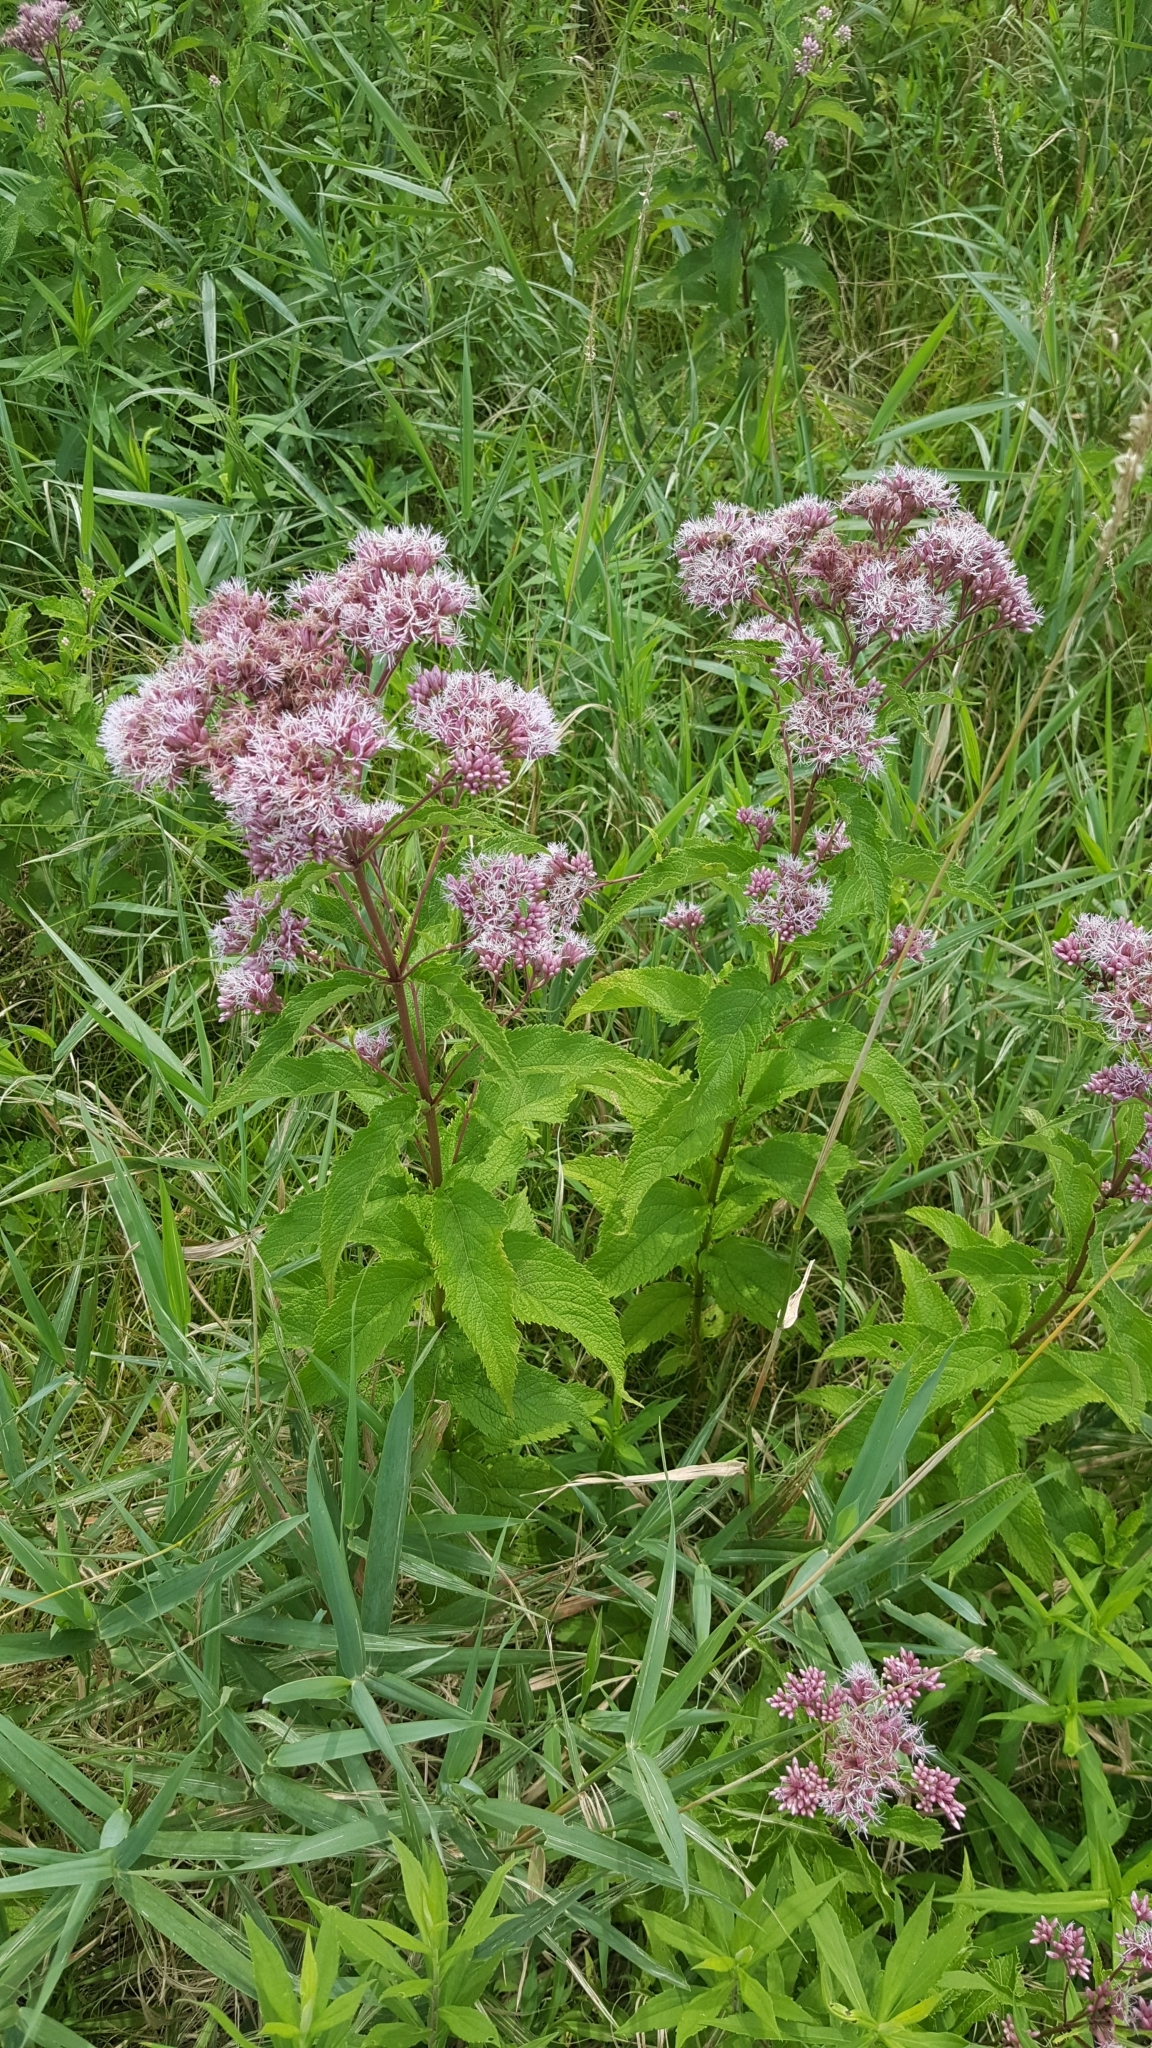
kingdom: Plantae
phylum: Tracheophyta
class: Magnoliopsida
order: Asterales
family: Asteraceae
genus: Eutrochium
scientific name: Eutrochium maculatum
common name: Spotted joe pye weed
